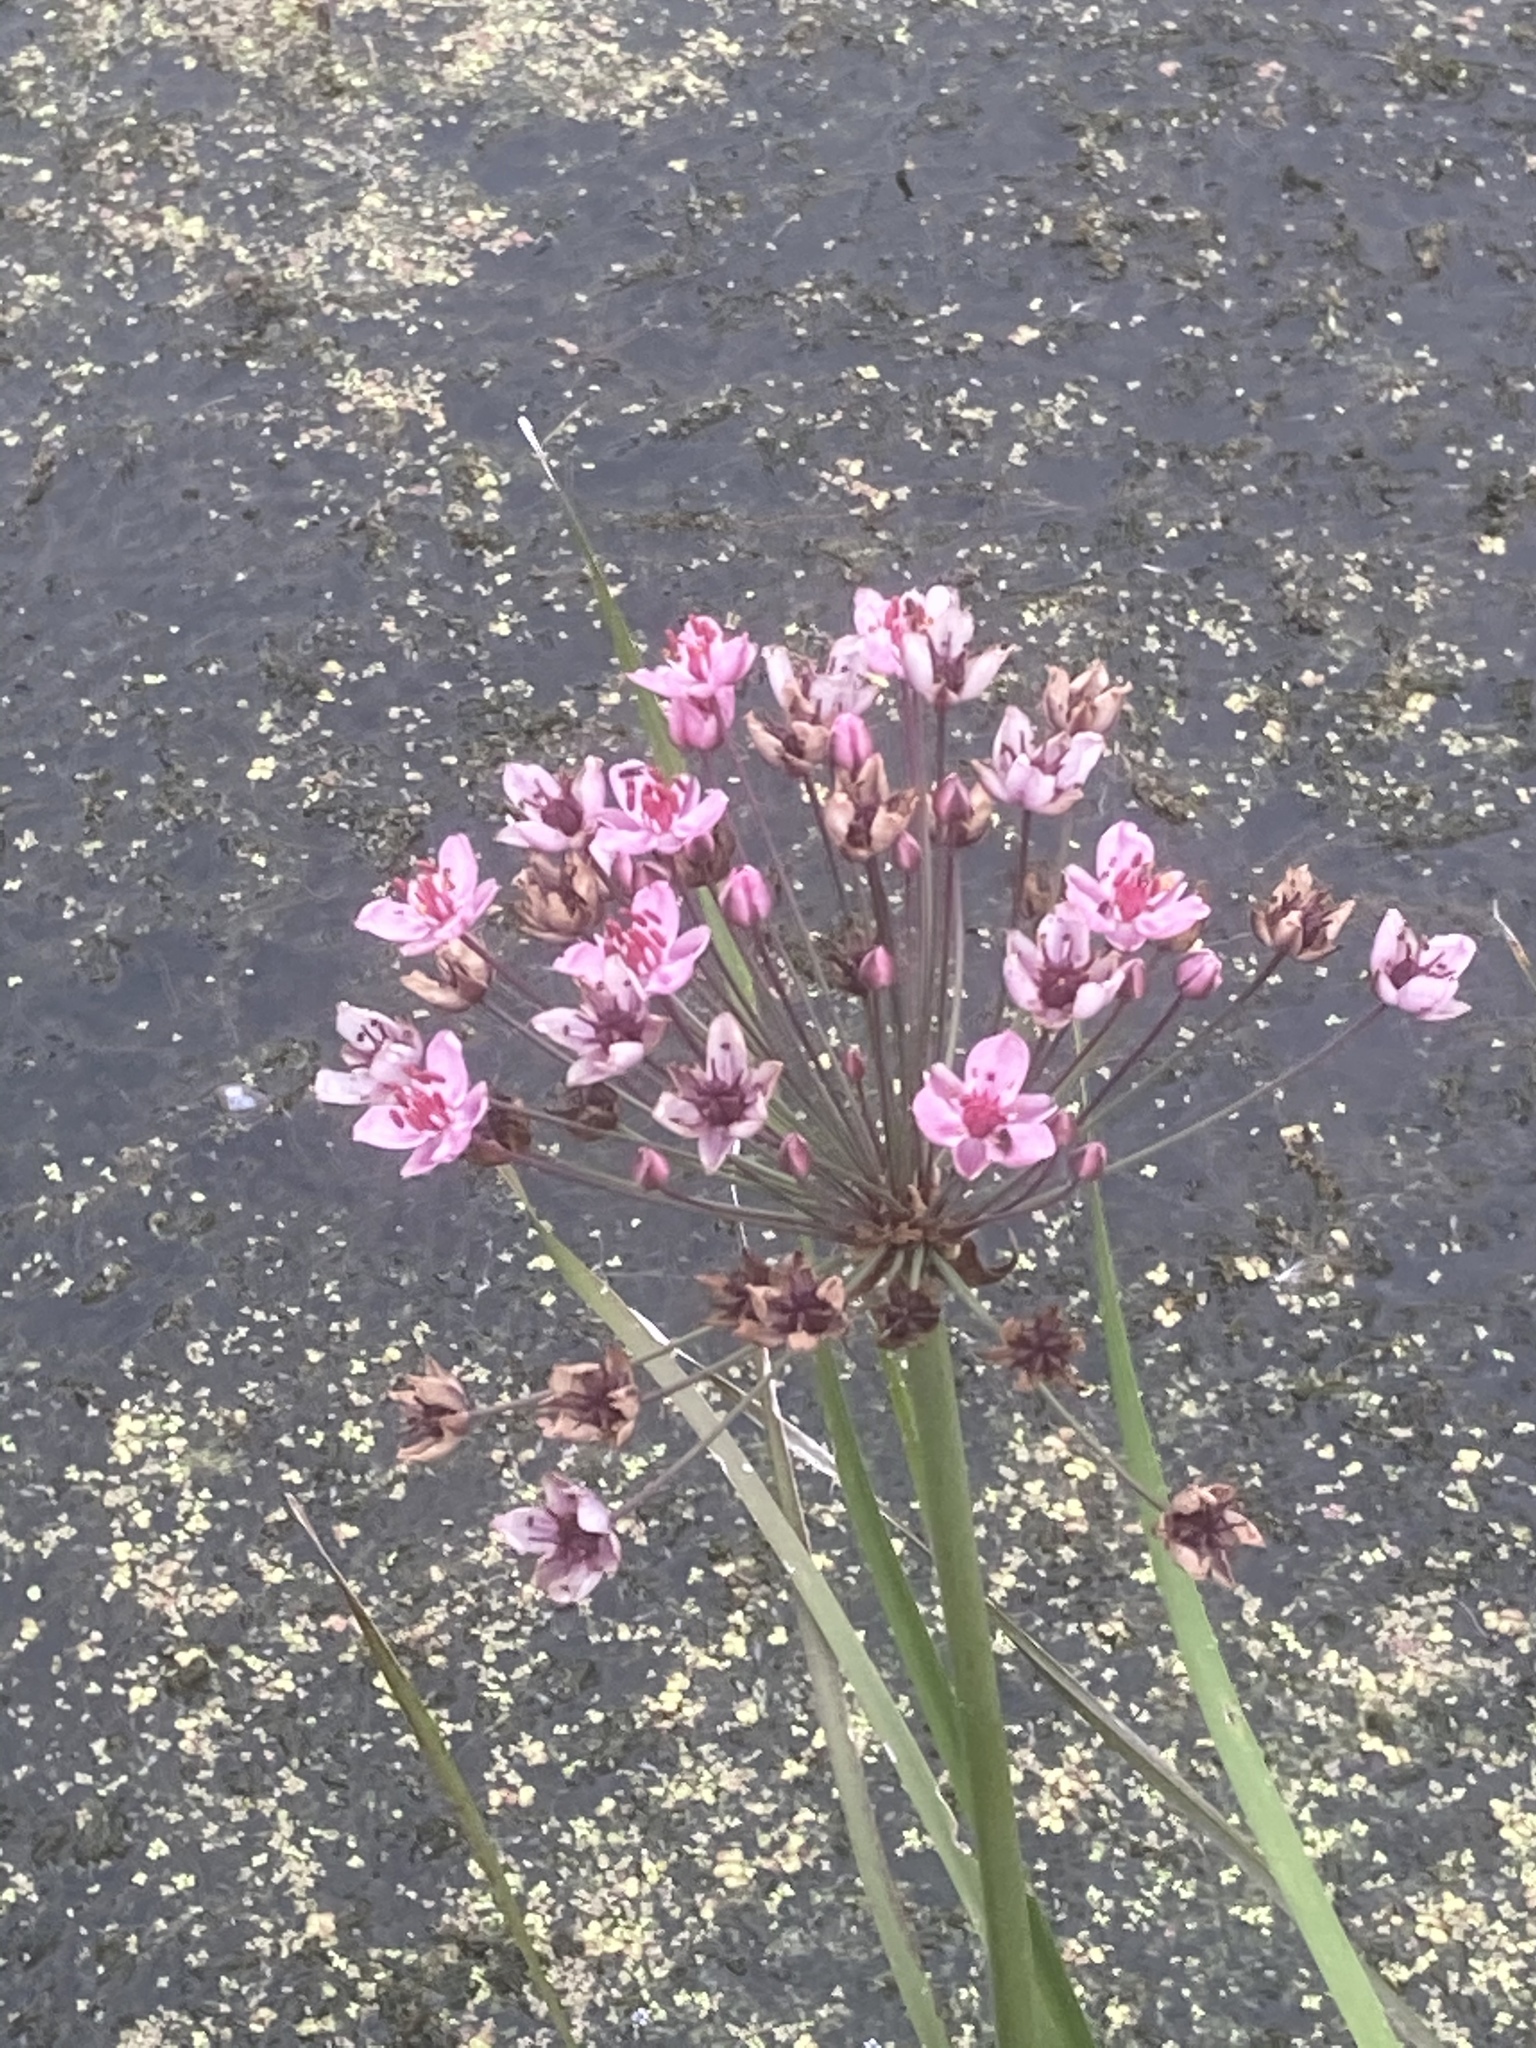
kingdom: Plantae
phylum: Tracheophyta
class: Liliopsida
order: Alismatales
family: Butomaceae
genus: Butomus
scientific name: Butomus umbellatus
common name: Flowering-rush
